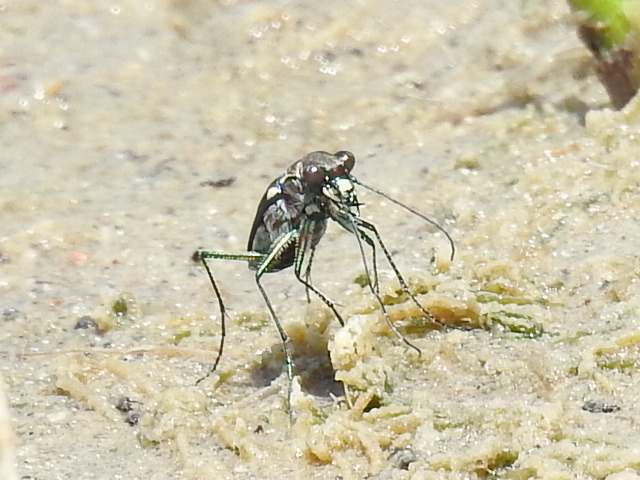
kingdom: Animalia
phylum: Arthropoda
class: Insecta
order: Coleoptera
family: Carabidae
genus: Cicindela
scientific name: Cicindela ocellata
